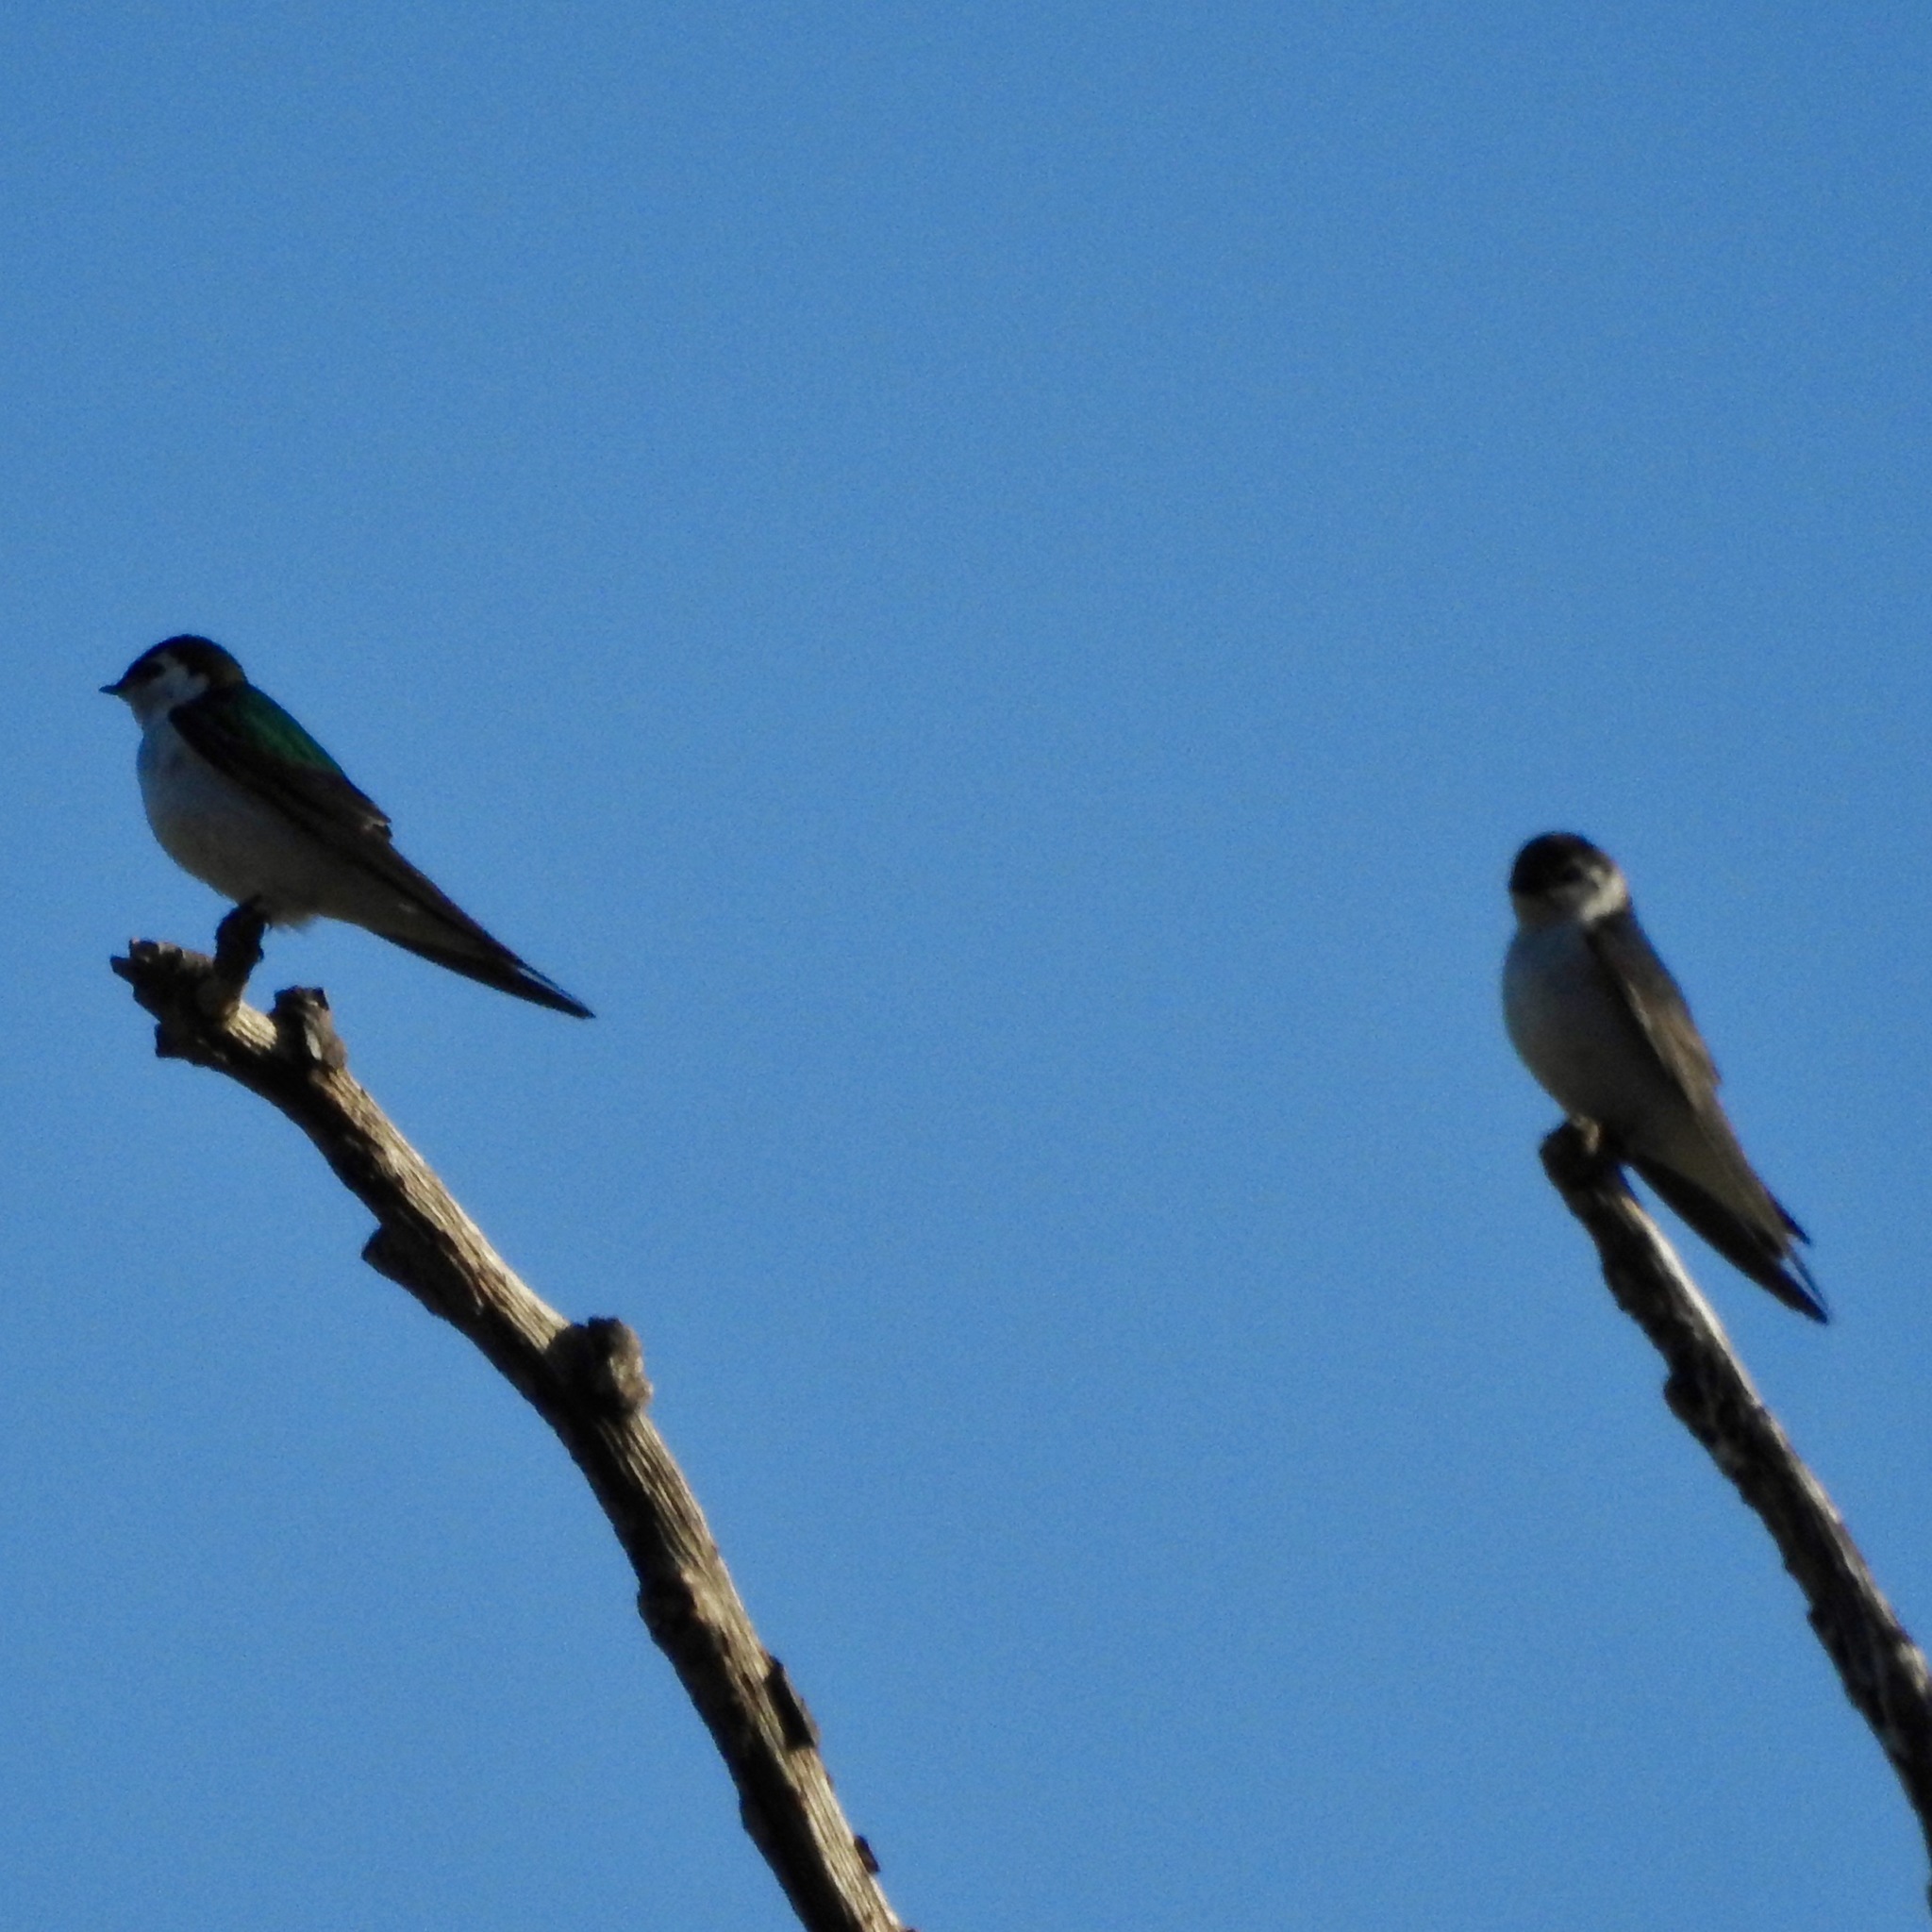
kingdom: Animalia
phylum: Chordata
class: Aves
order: Passeriformes
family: Hirundinidae
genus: Tachycineta
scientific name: Tachycineta thalassina
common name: Violet-green swallow
